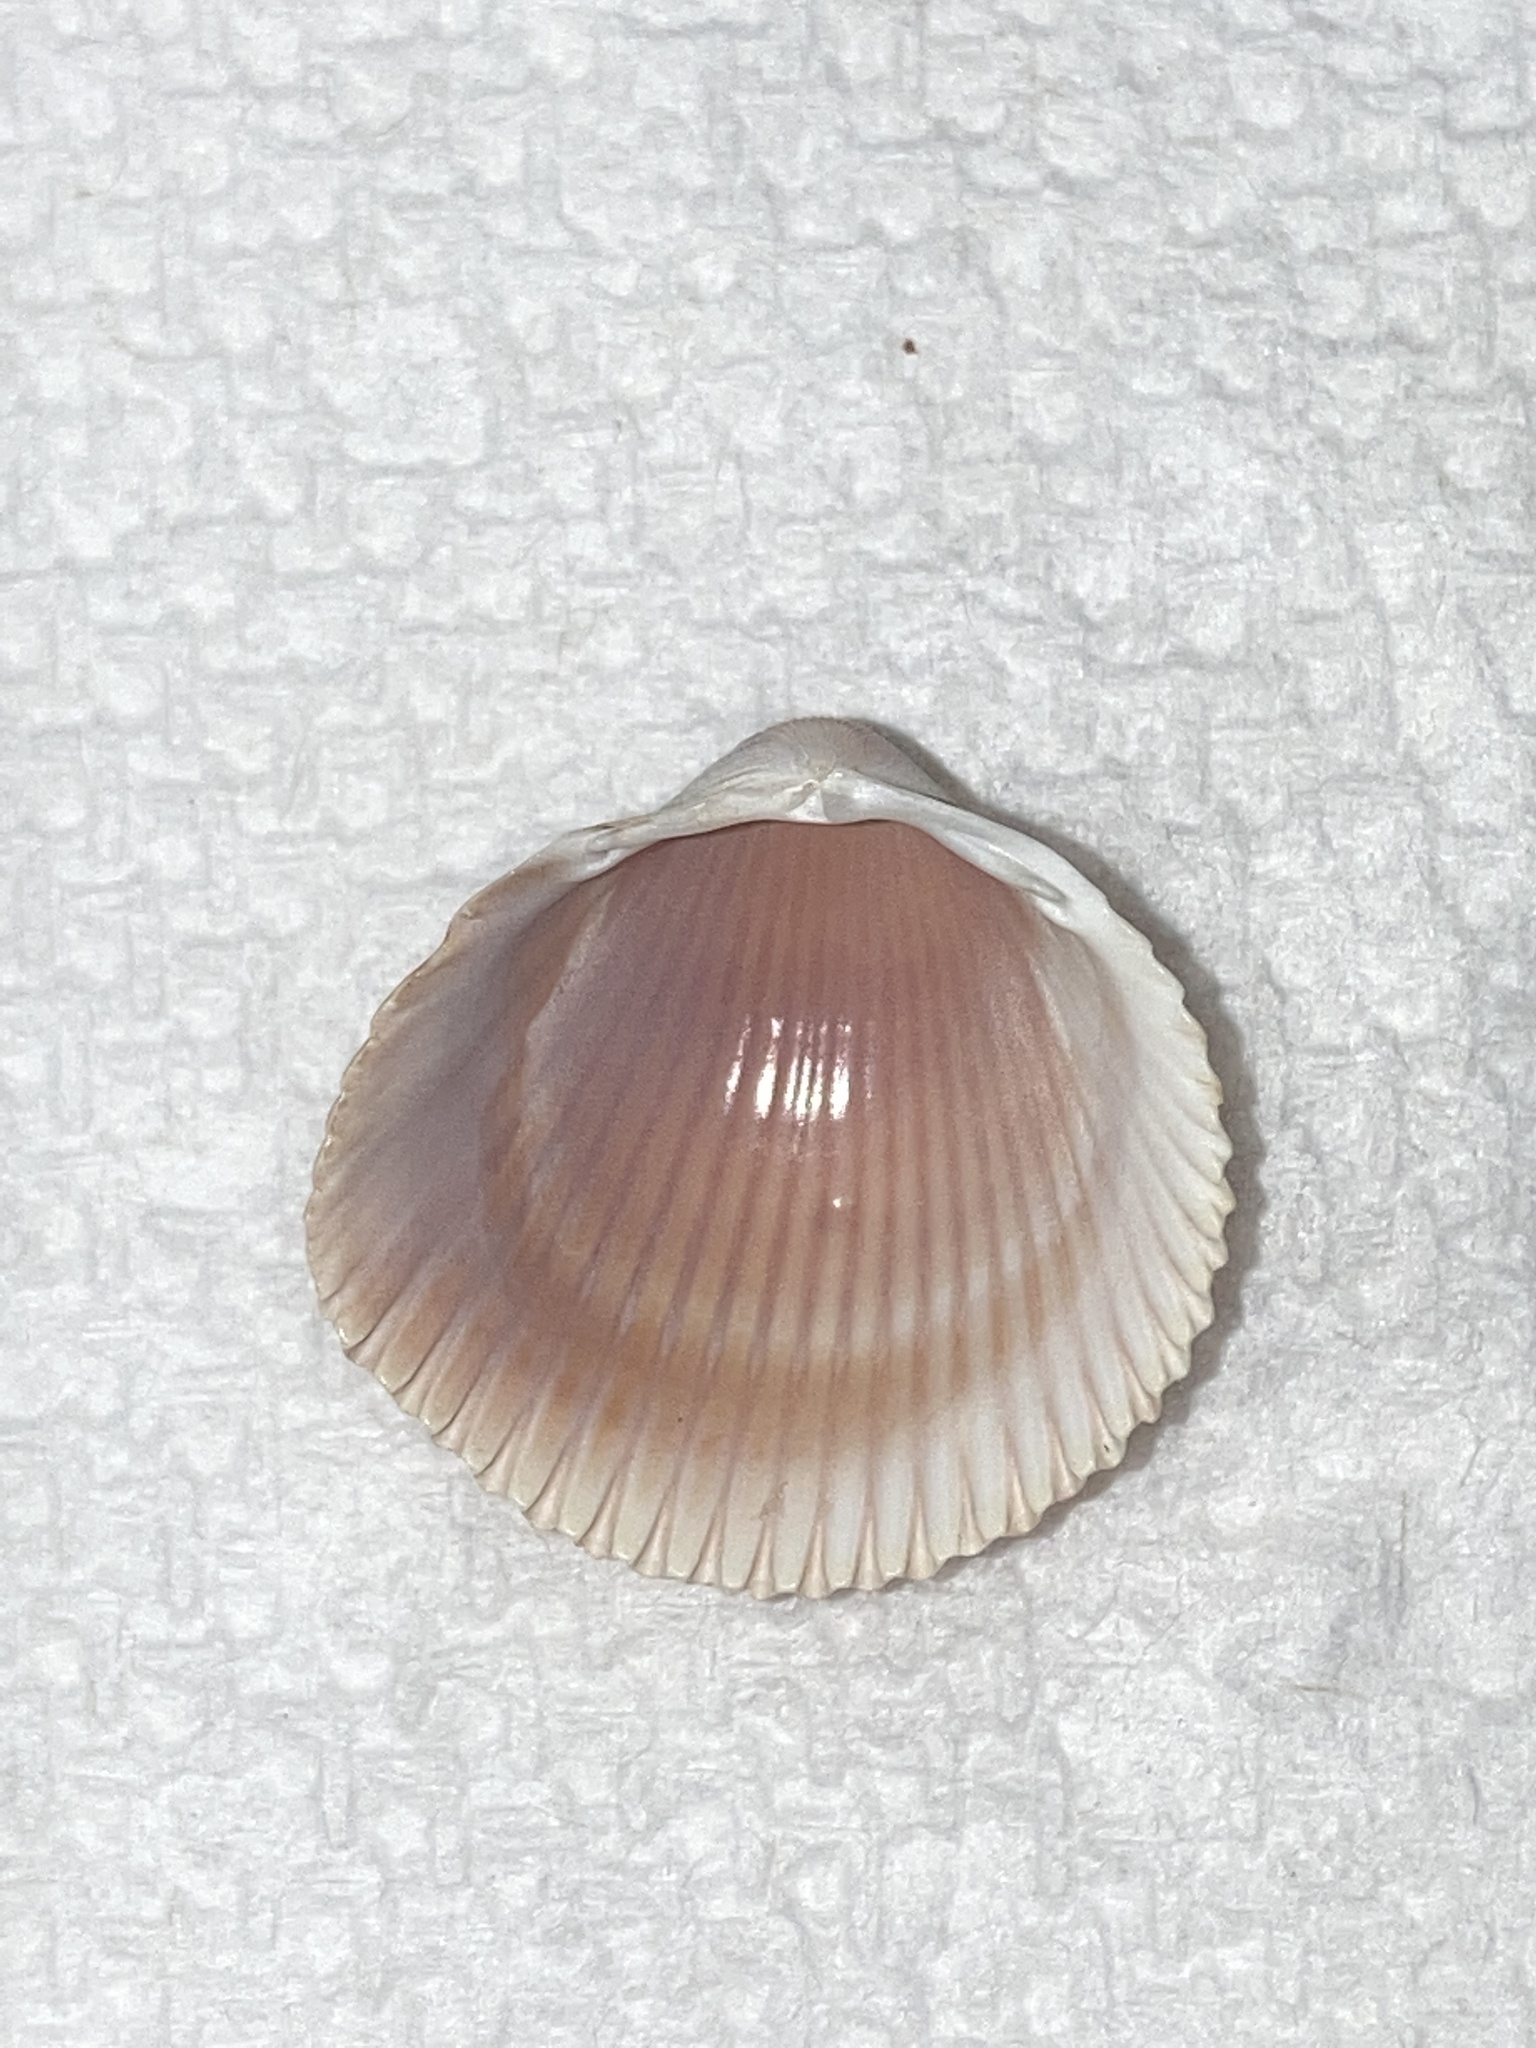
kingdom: Animalia
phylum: Mollusca
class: Bivalvia
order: Cardiida
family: Cardiidae
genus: Dinocardium
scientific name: Dinocardium robustum
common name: Atlantic giant cockle
